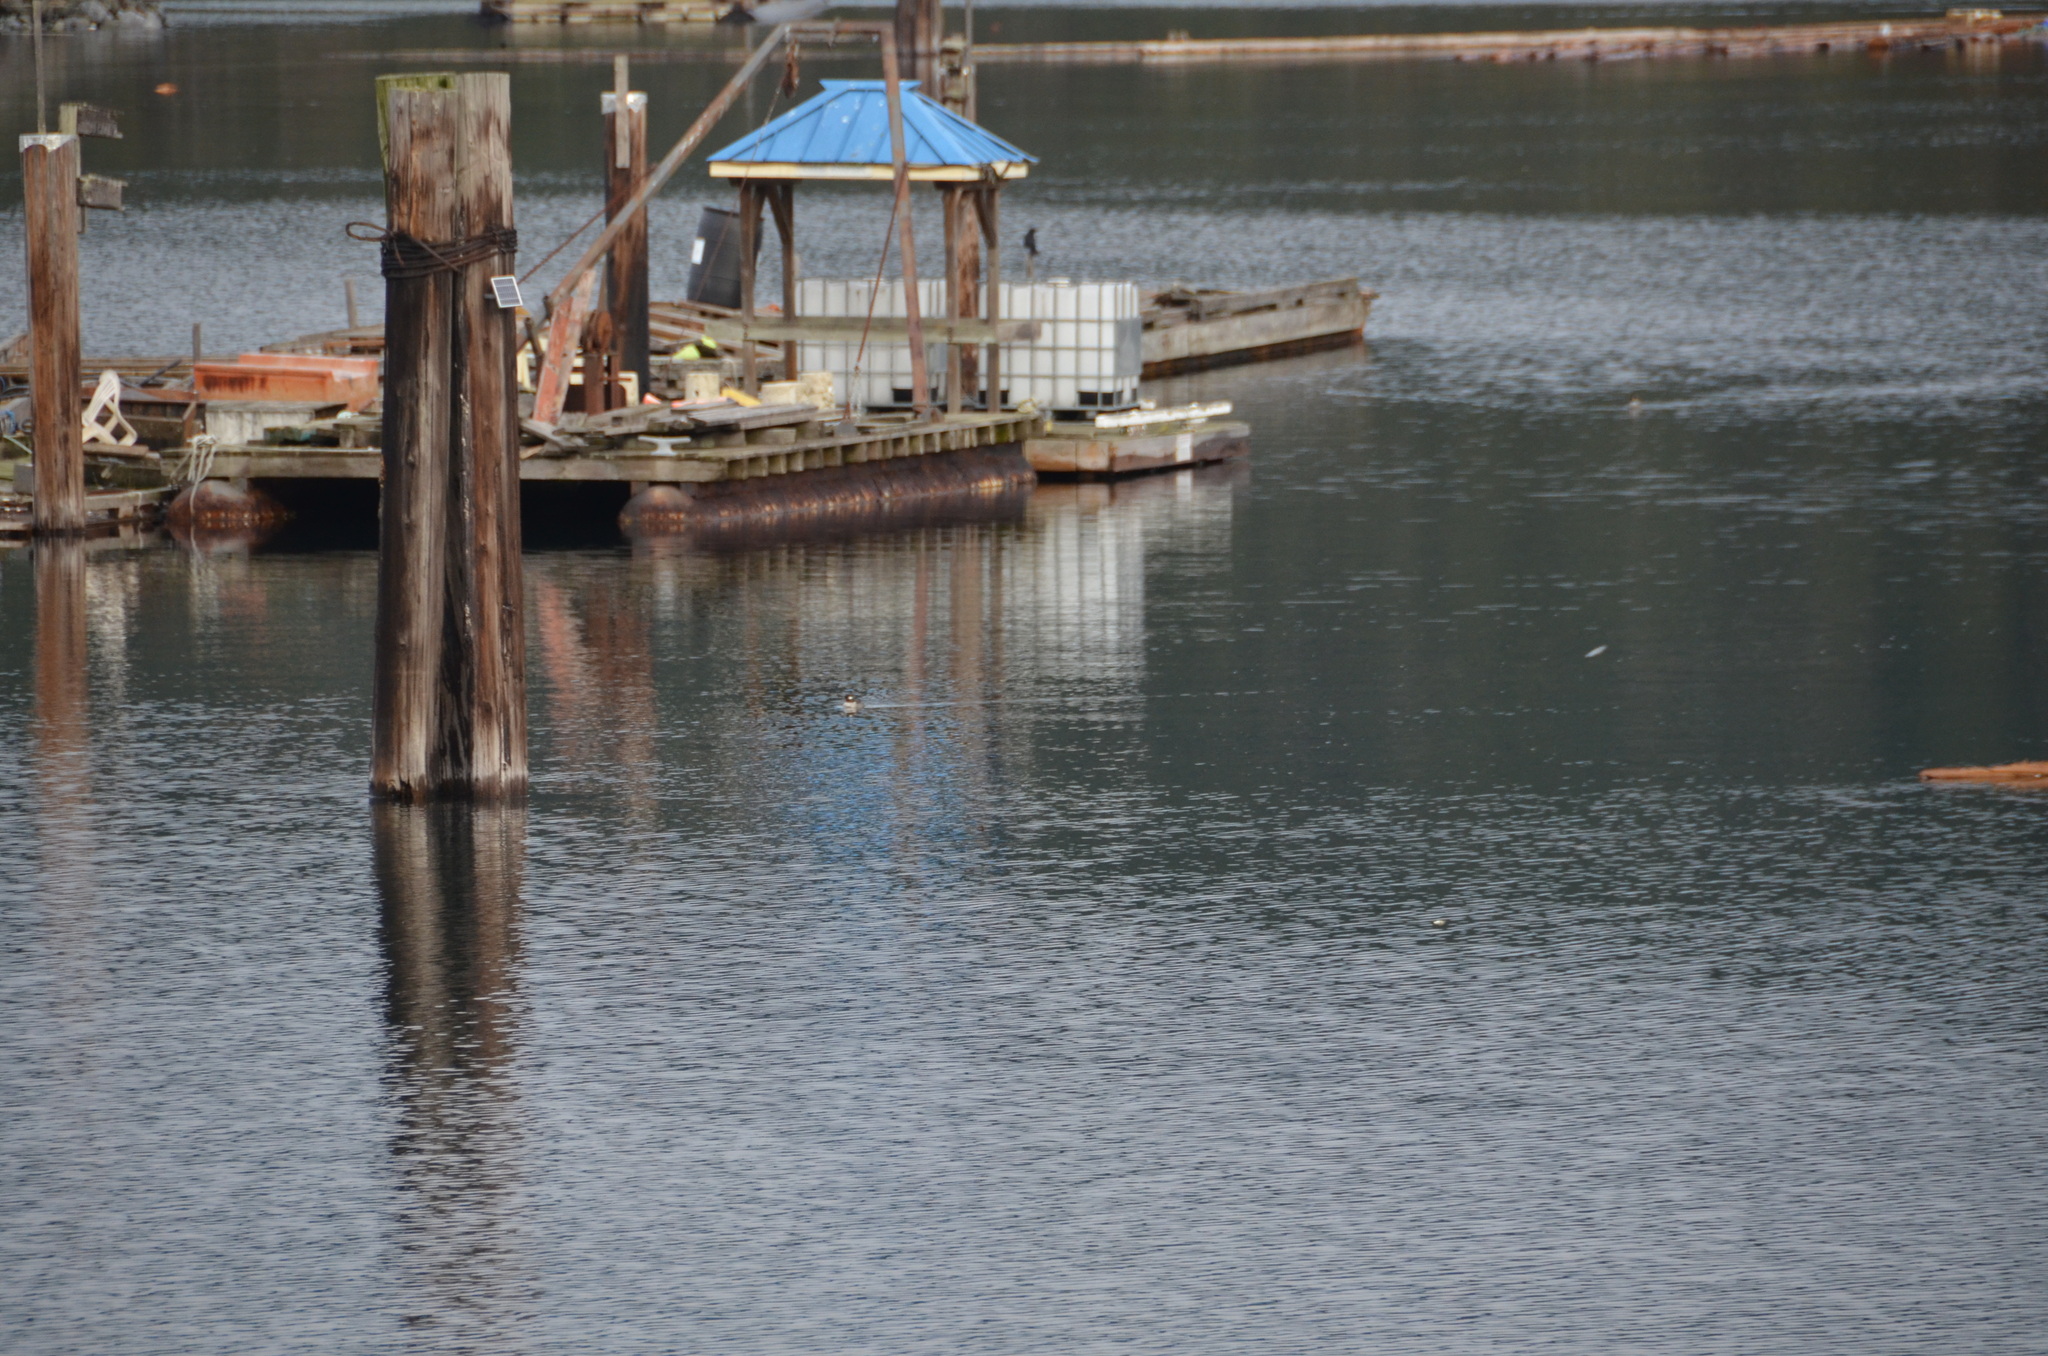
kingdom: Animalia
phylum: Chordata
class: Aves
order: Anseriformes
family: Anatidae
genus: Bucephala
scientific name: Bucephala albeola
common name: Bufflehead
